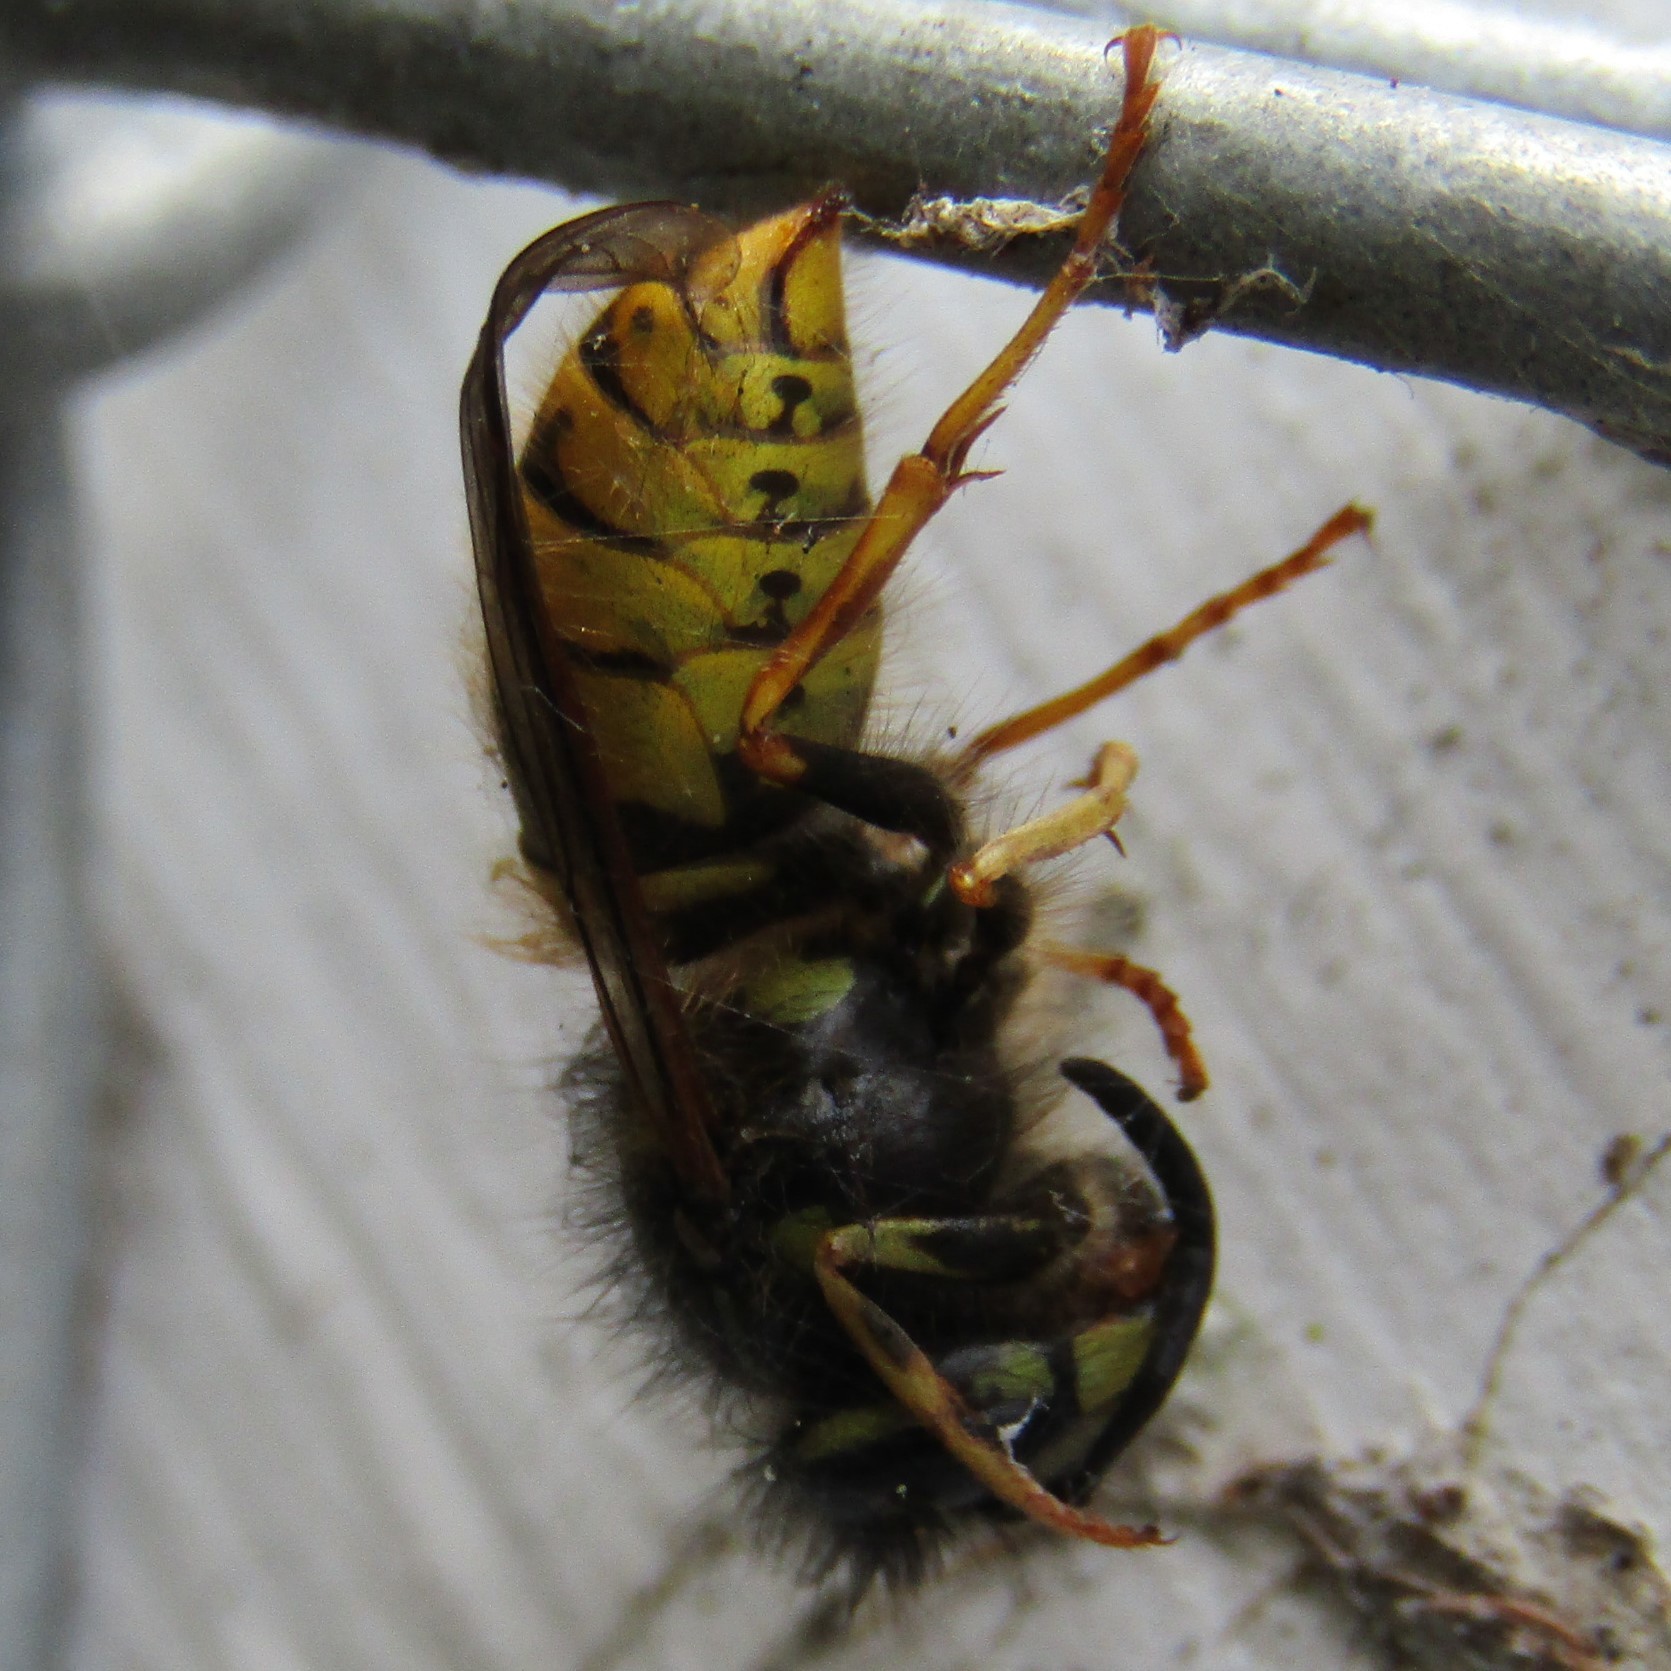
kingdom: Animalia
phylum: Arthropoda
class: Insecta
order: Hymenoptera
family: Vespidae
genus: Vespula
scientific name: Vespula vulgaris
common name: Common wasp
